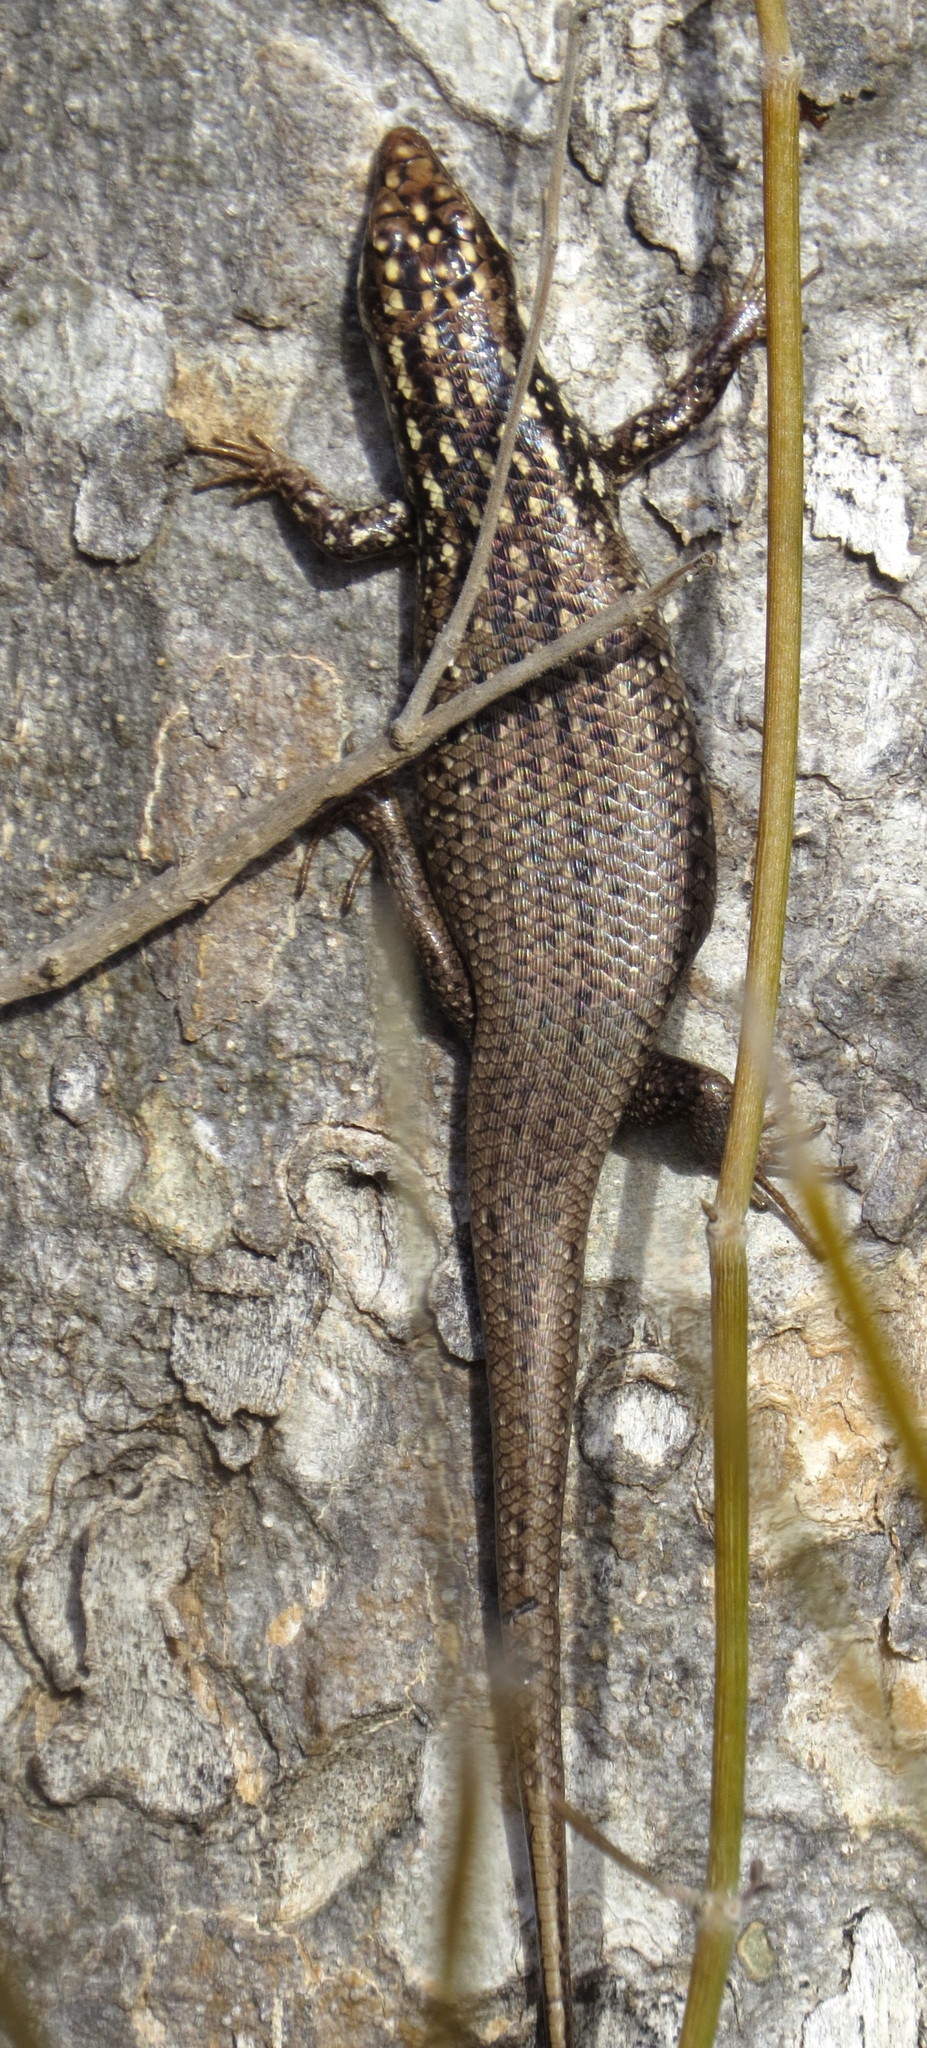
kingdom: Animalia
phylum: Chordata
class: Squamata
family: Scincidae
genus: Trachylepis
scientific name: Trachylepis aureopunctata
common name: Gold-spotted mabuya
